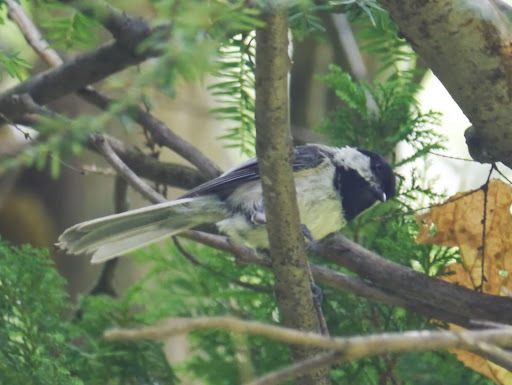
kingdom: Animalia
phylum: Chordata
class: Aves
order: Passeriformes
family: Paridae
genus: Poecile
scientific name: Poecile atricapillus
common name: Black-capped chickadee
